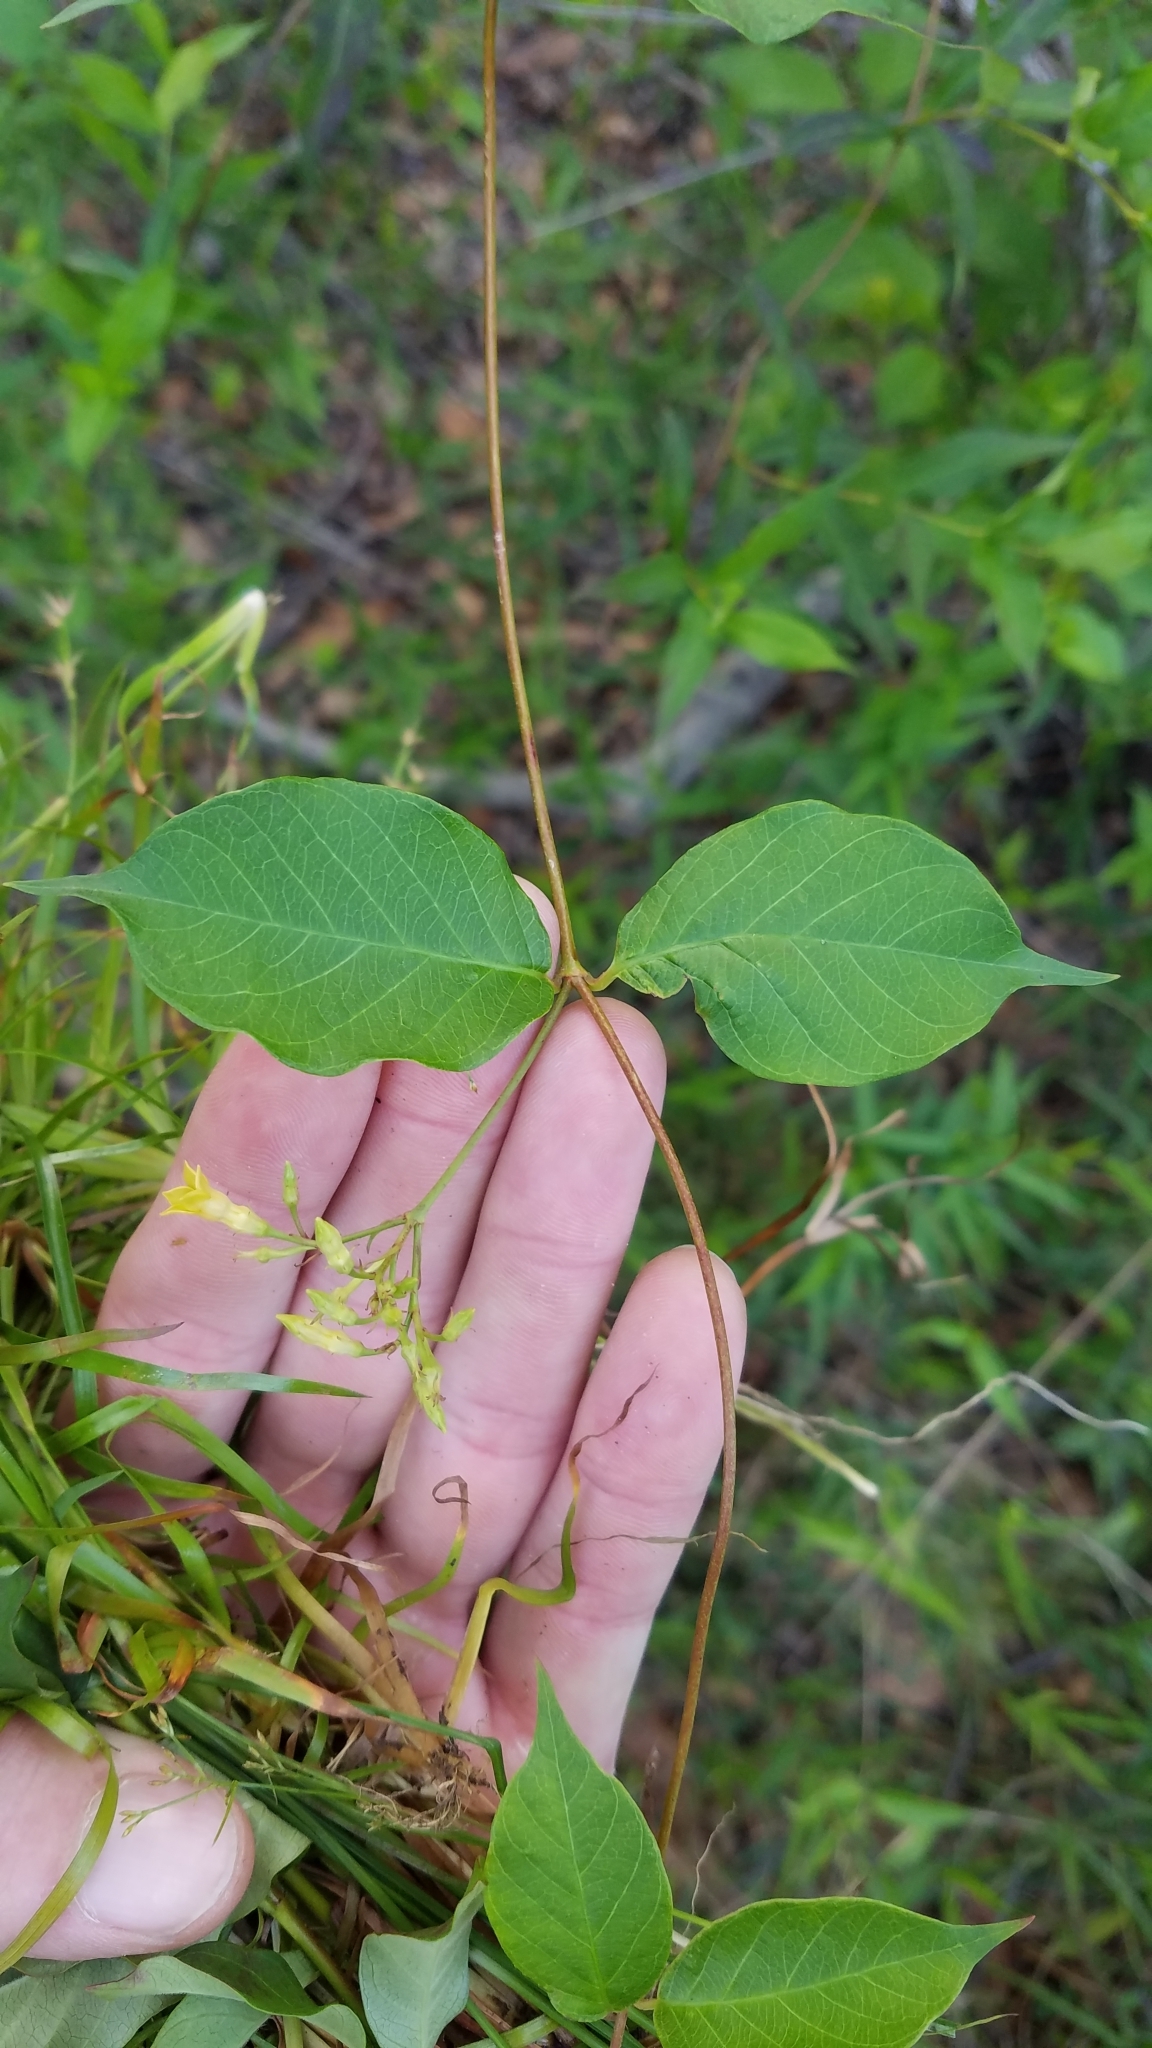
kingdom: Plantae
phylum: Tracheophyta
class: Magnoliopsida
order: Gentianales
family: Apocynaceae
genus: Thyrsanthella
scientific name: Thyrsanthella difformis
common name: Climbing dogbane
